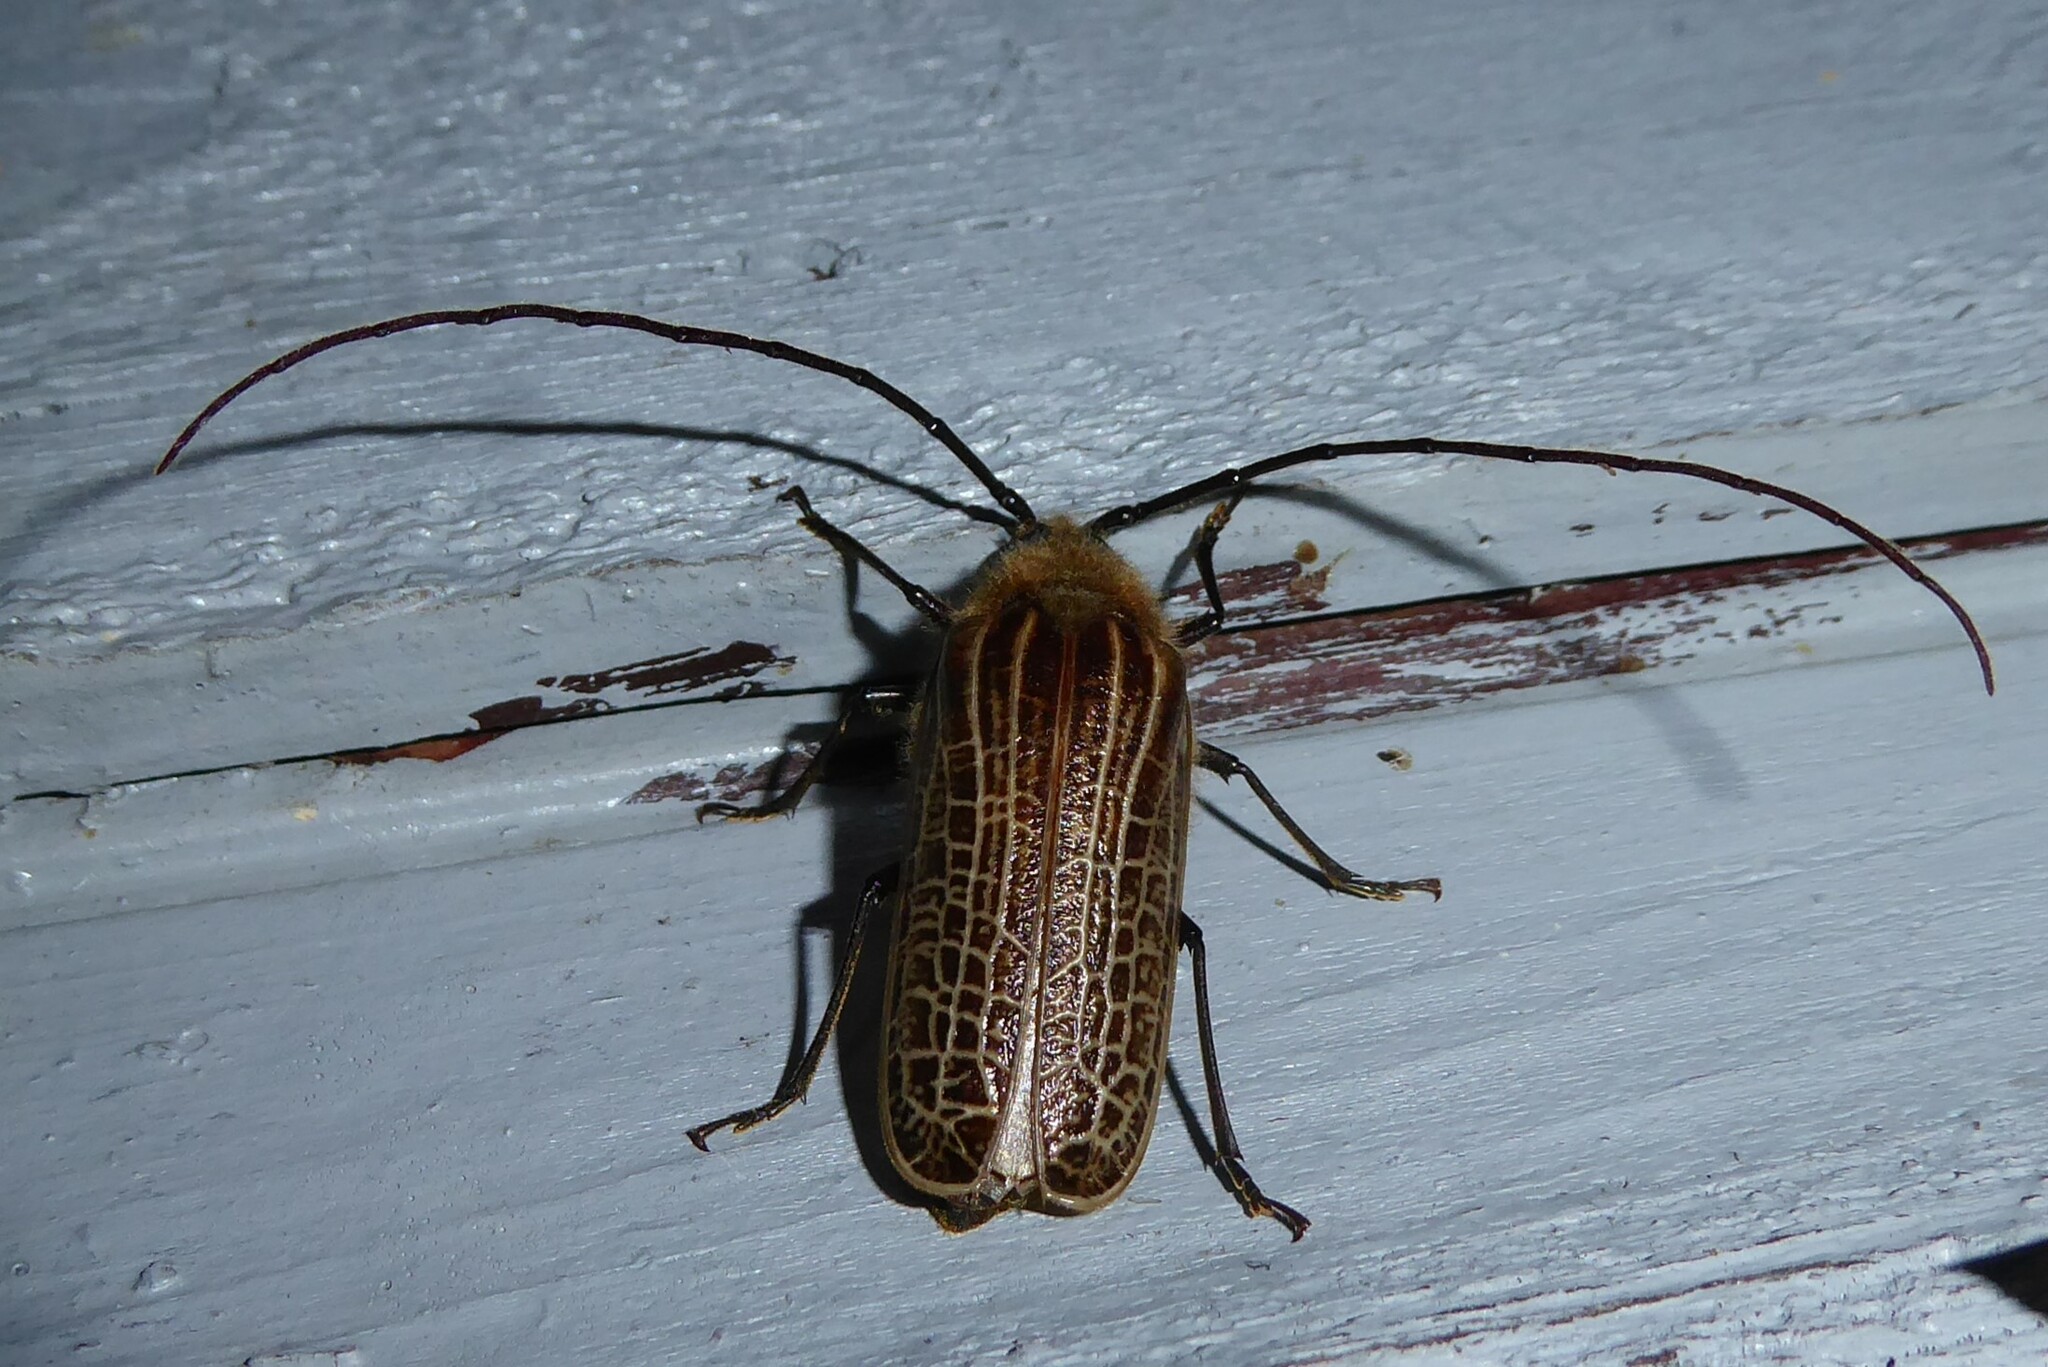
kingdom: Animalia
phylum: Arthropoda
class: Insecta
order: Coleoptera
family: Cerambycidae
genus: Prionoplus
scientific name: Prionoplus reticularis
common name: Huhu beetle
